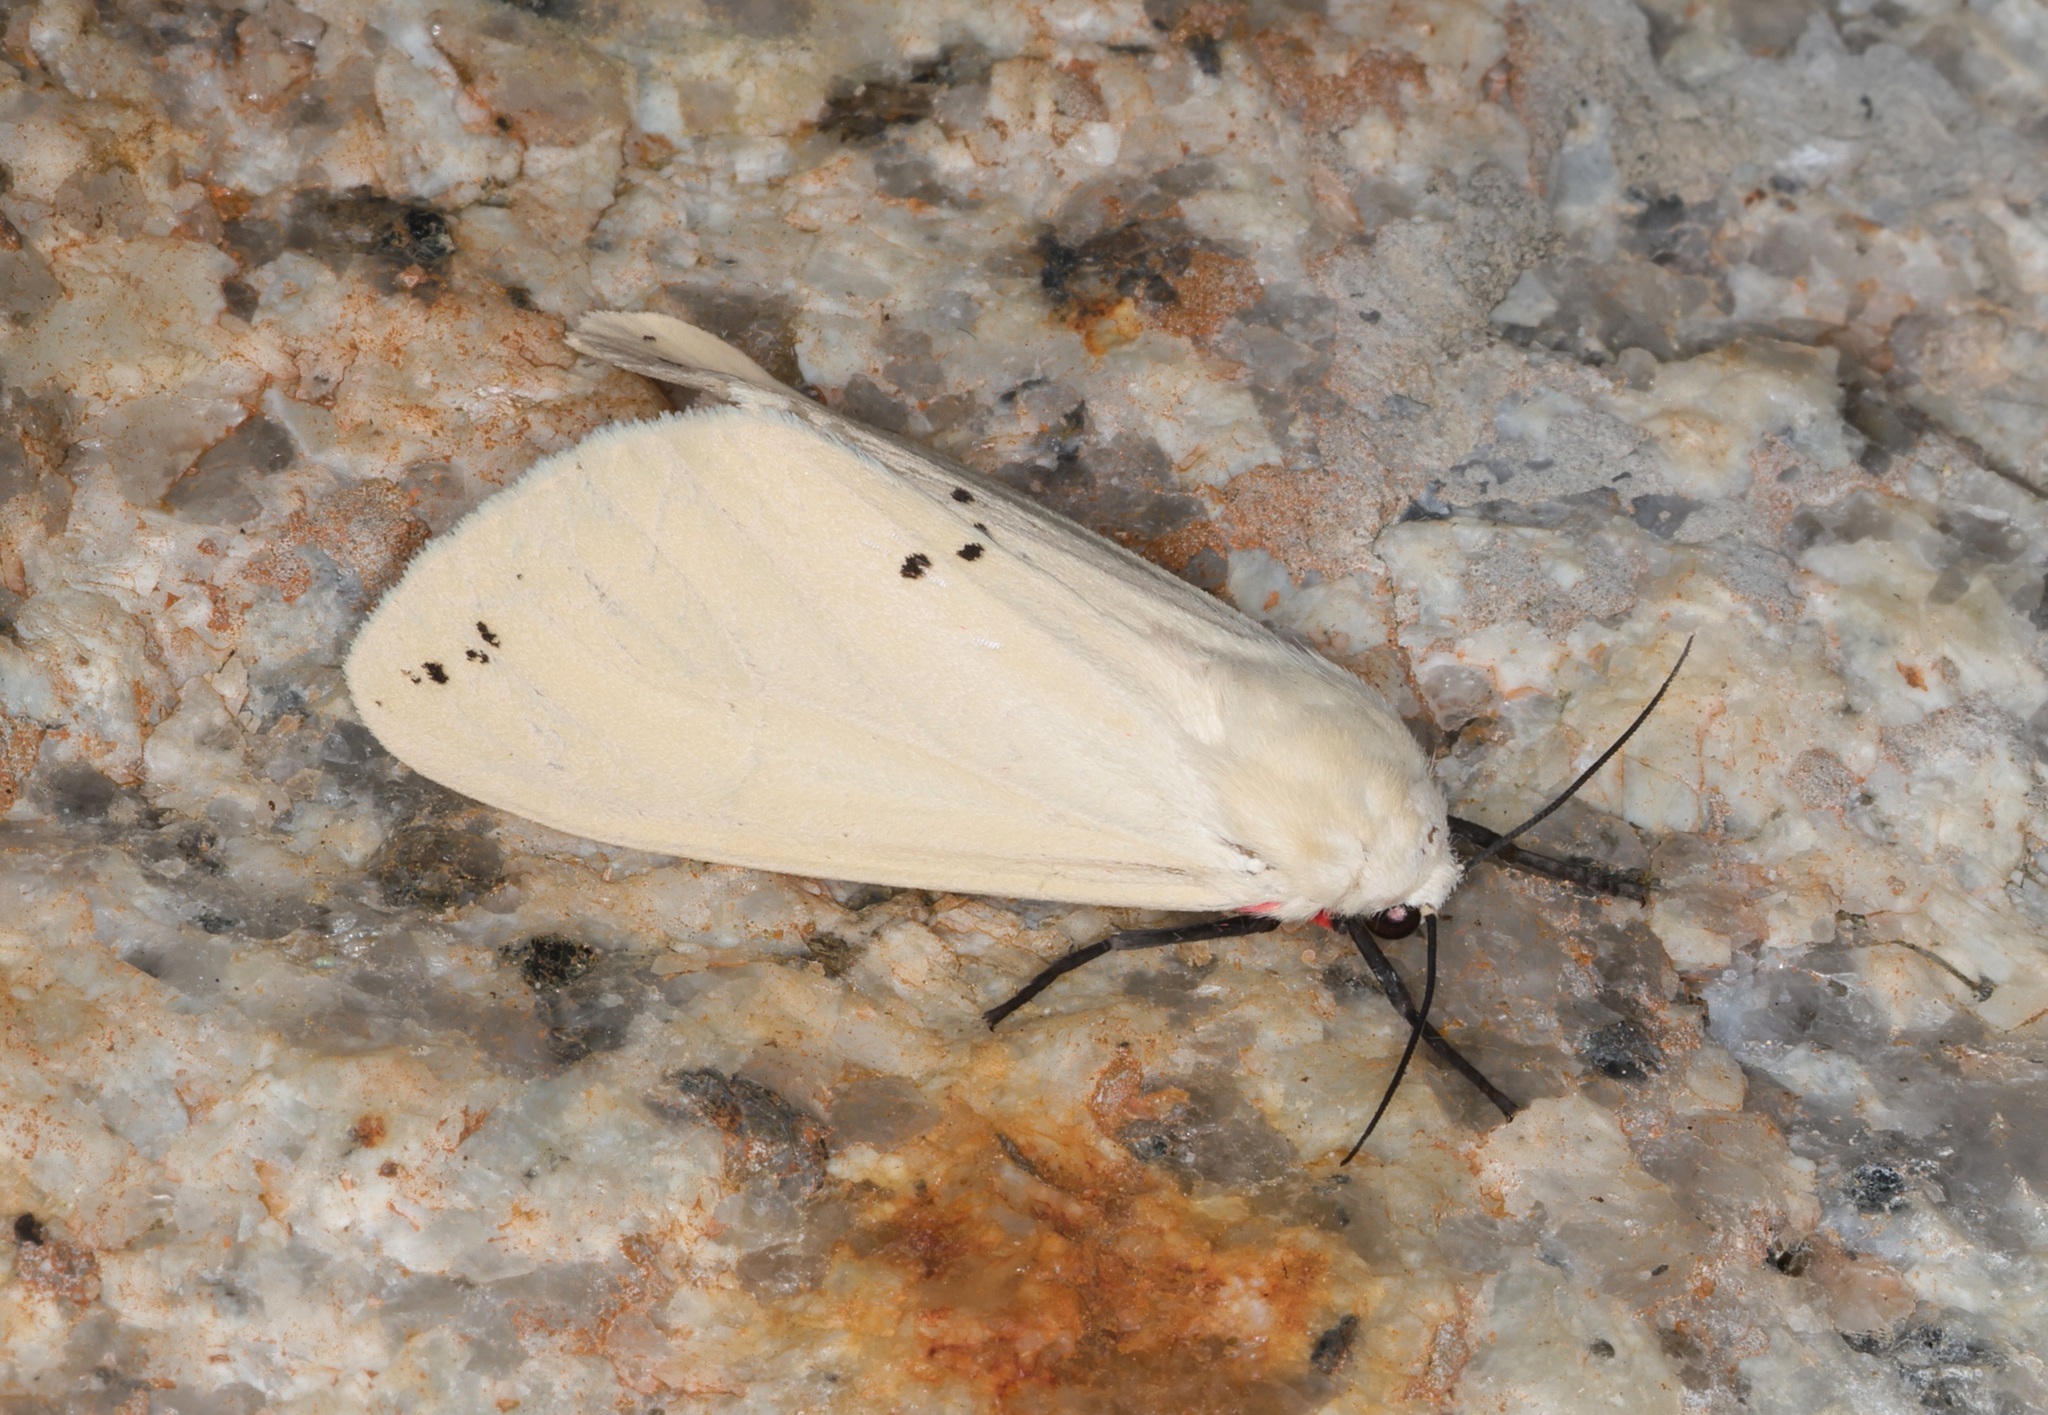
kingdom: Animalia
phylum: Arthropoda
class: Insecta
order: Lepidoptera
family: Erebidae
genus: Spilarctia
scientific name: Spilarctia subcarnea
